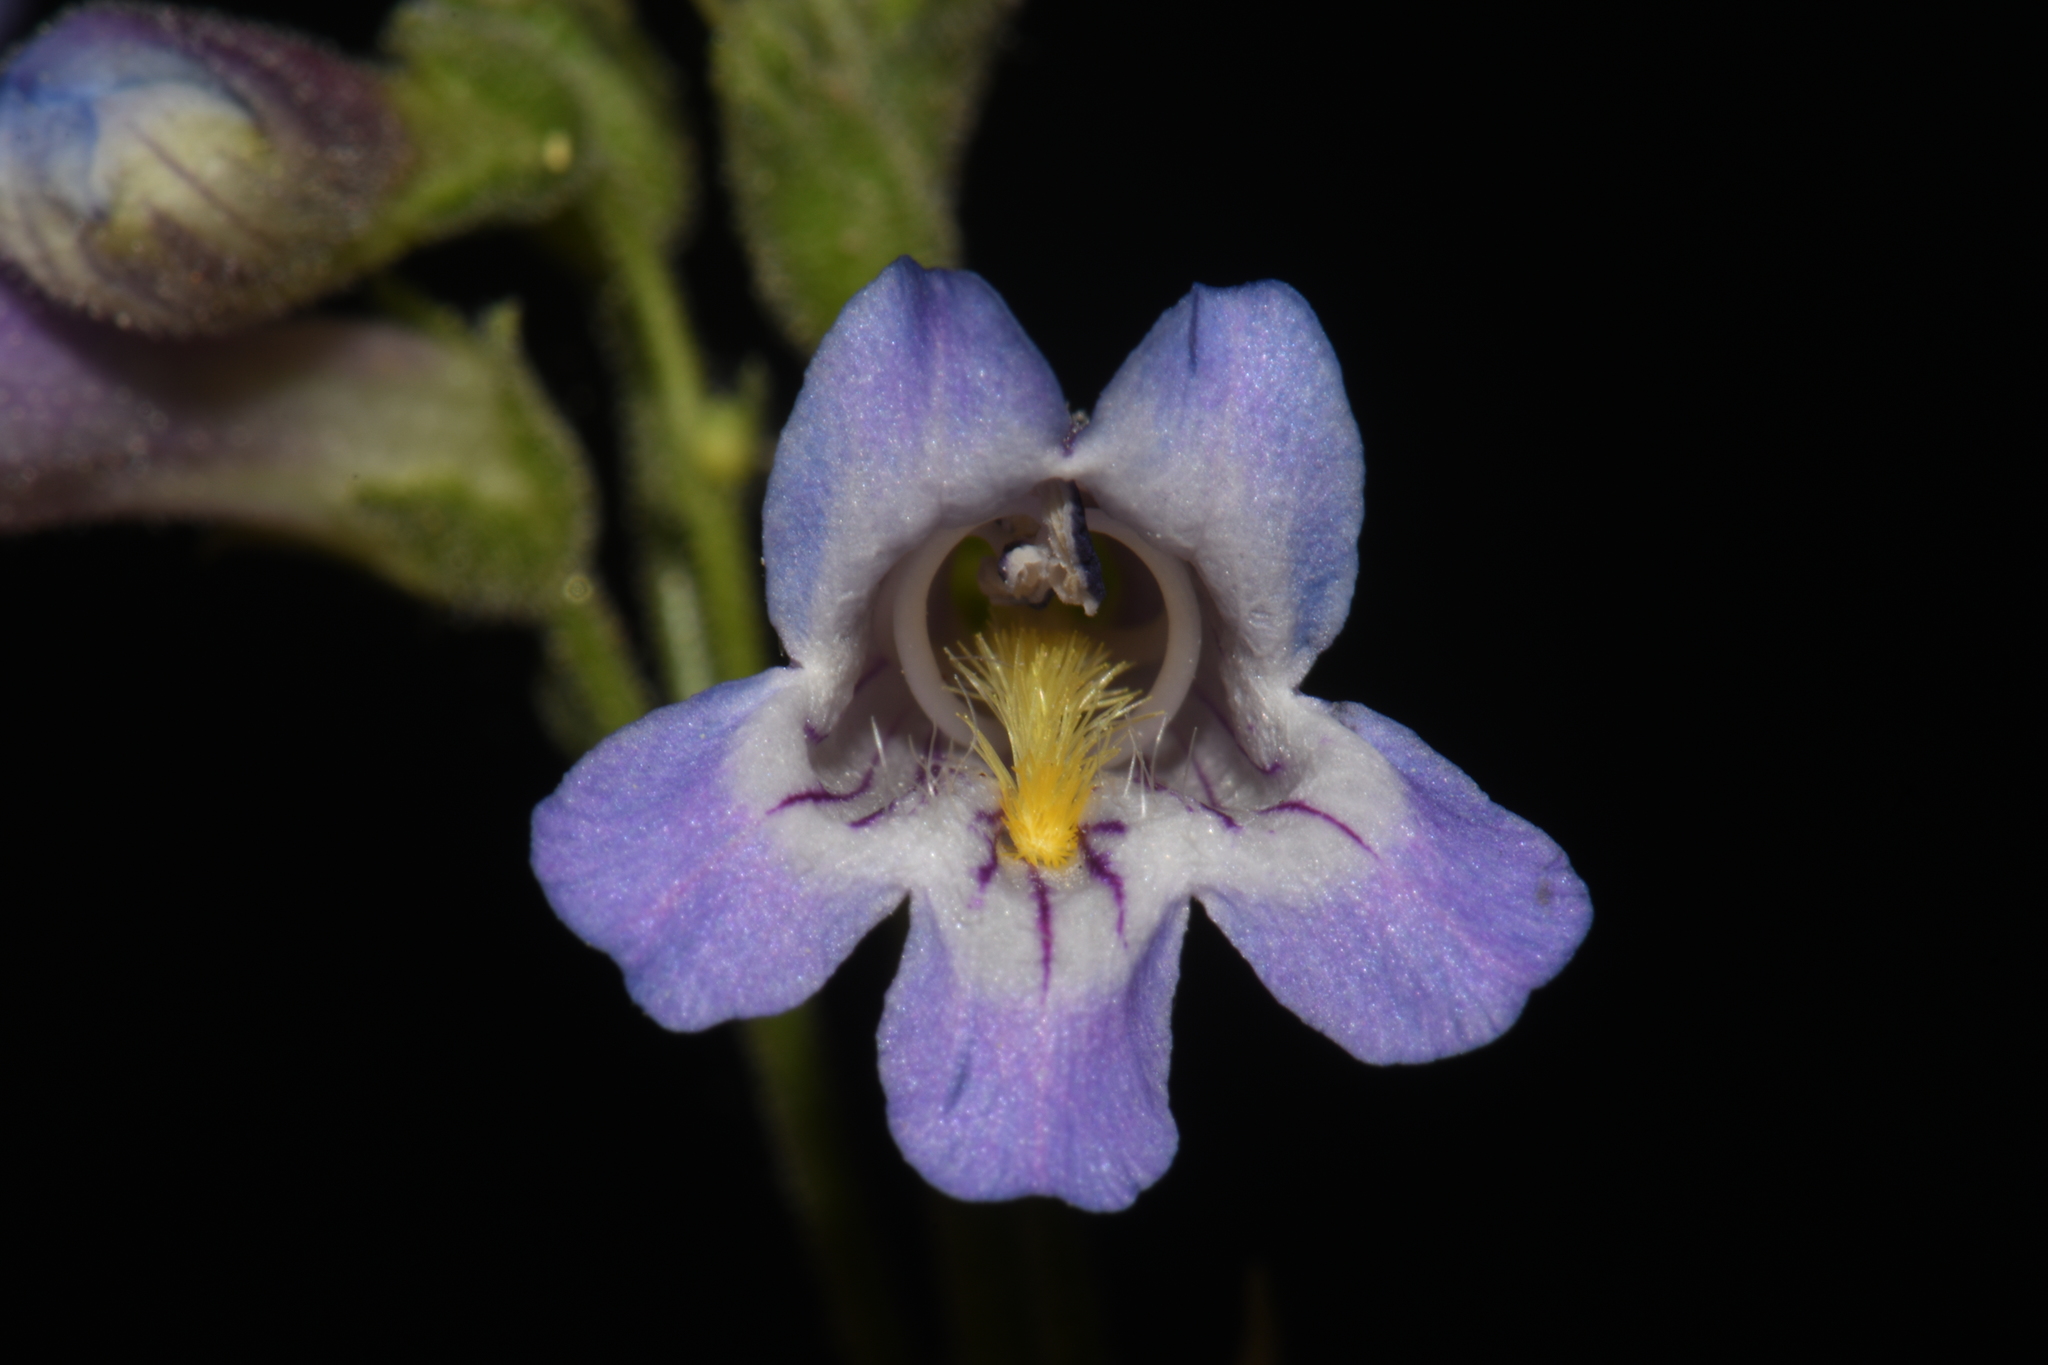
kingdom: Plantae
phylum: Tracheophyta
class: Magnoliopsida
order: Lamiales
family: Plantaginaceae
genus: Penstemon
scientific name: Penstemon oliganthus
